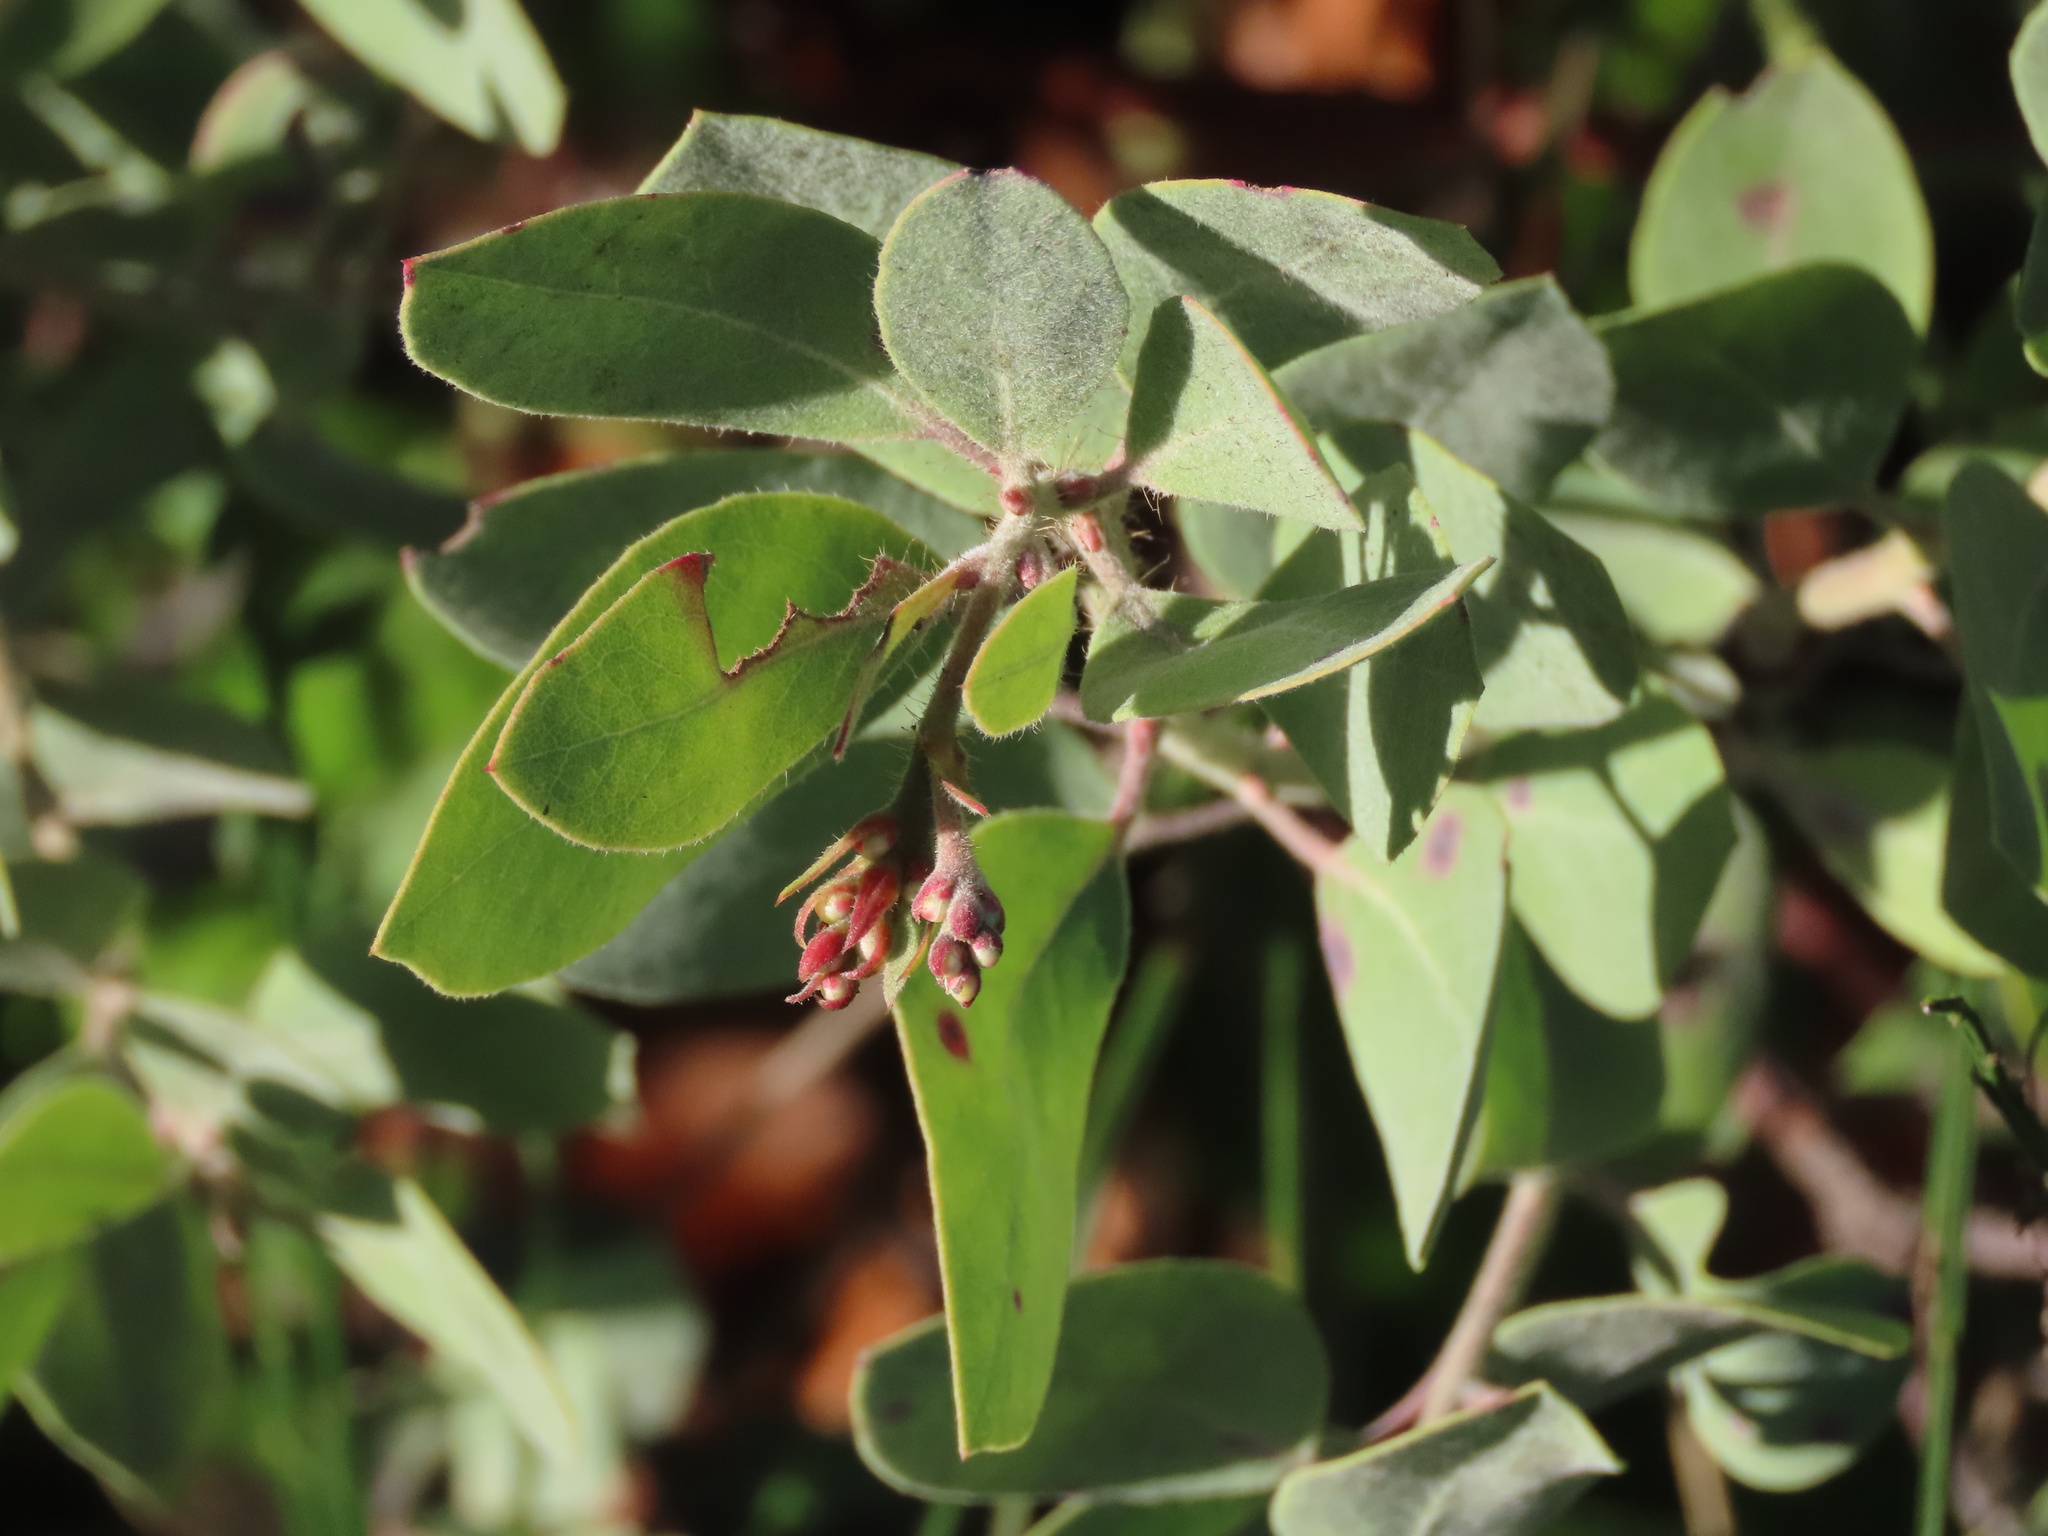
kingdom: Plantae
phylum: Tracheophyta
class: Magnoliopsida
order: Ericales
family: Ericaceae
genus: Arctostaphylos
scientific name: Arctostaphylos columbiana
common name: Bristly bearberry
